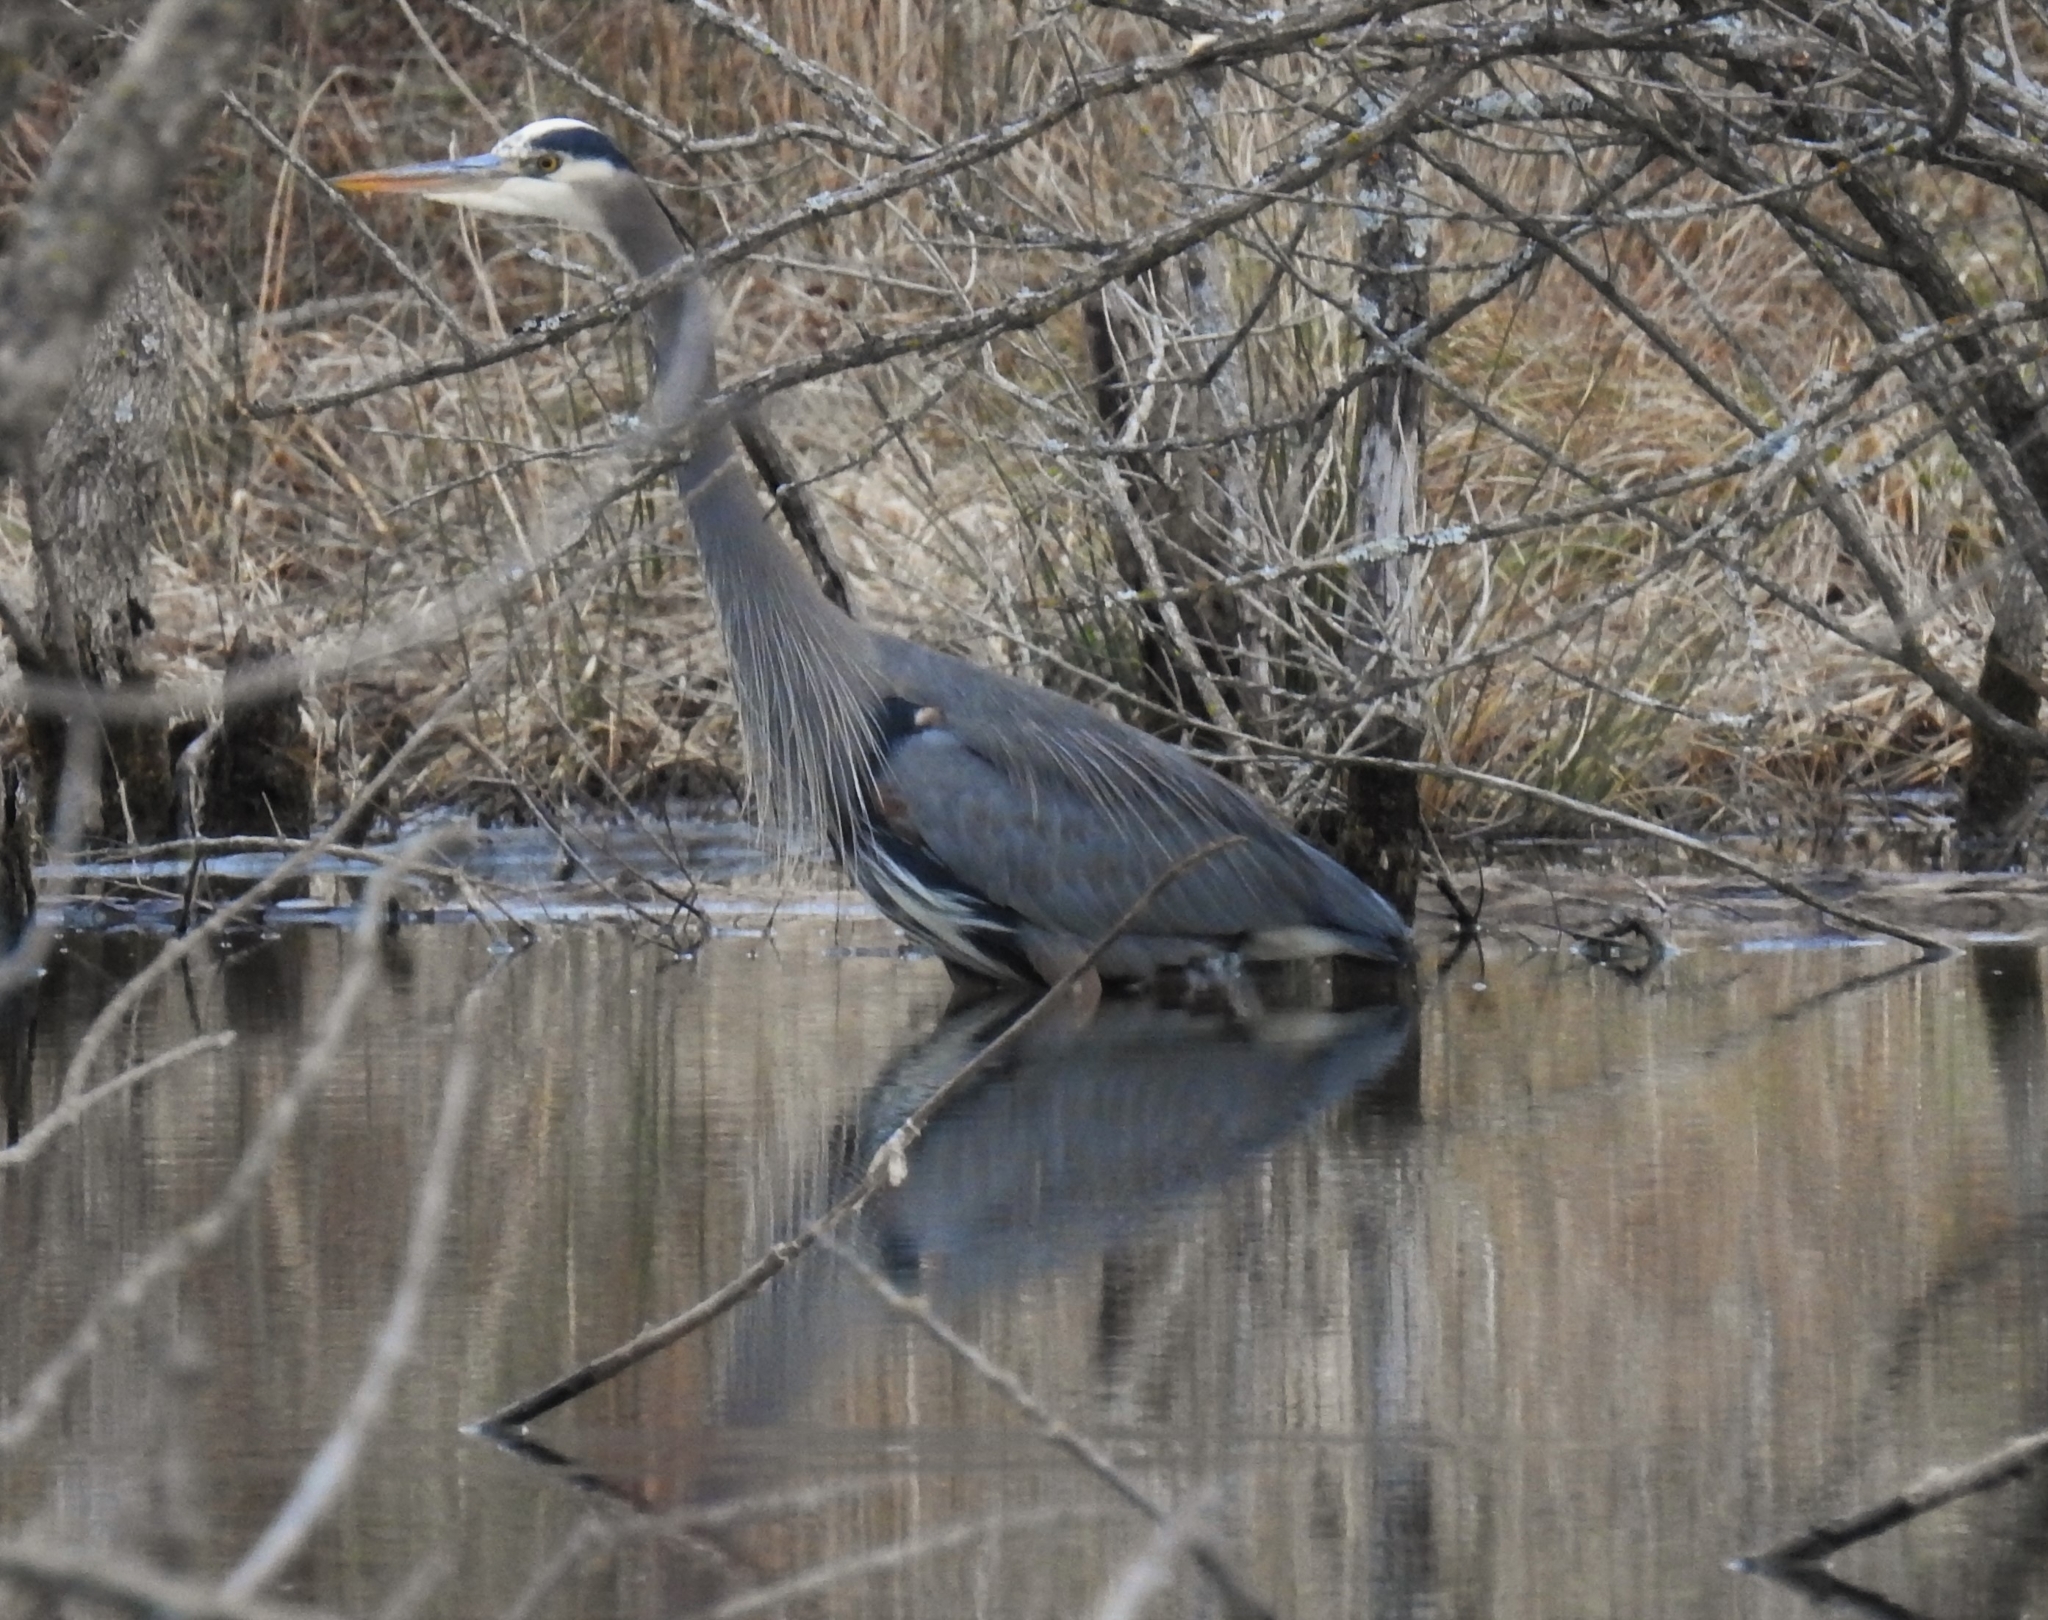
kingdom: Animalia
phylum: Chordata
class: Aves
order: Pelecaniformes
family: Ardeidae
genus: Ardea
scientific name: Ardea herodias
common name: Great blue heron
